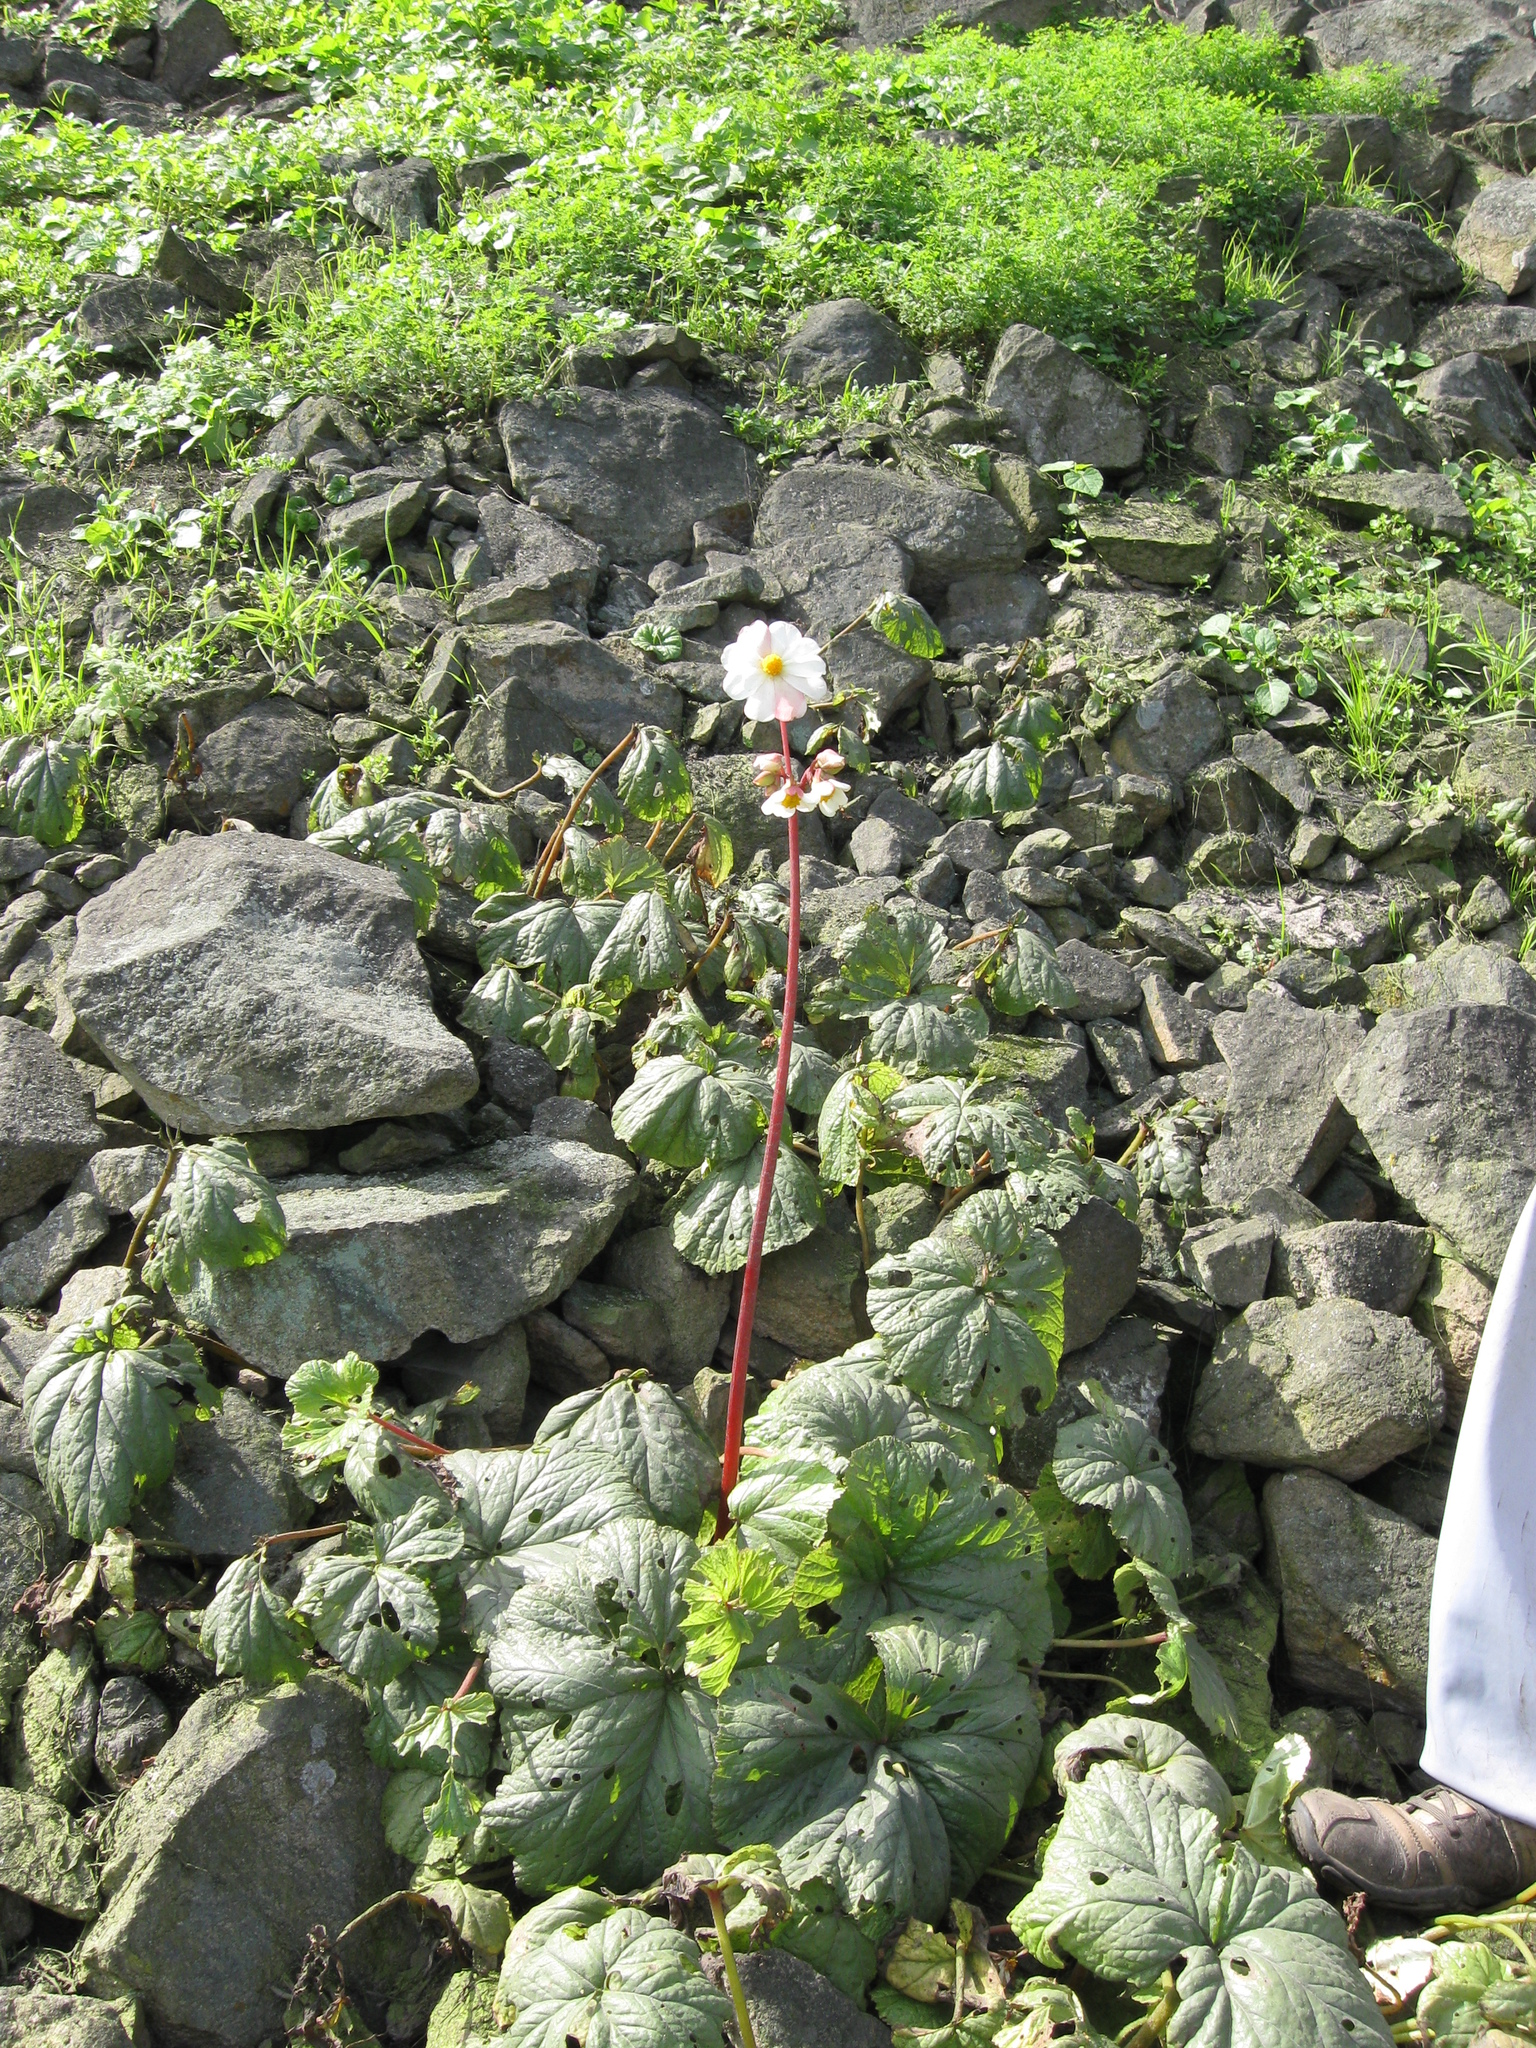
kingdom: Plantae
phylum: Tracheophyta
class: Magnoliopsida
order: Cucurbitales
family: Begoniaceae
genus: Begonia
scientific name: Begonia octopetala
